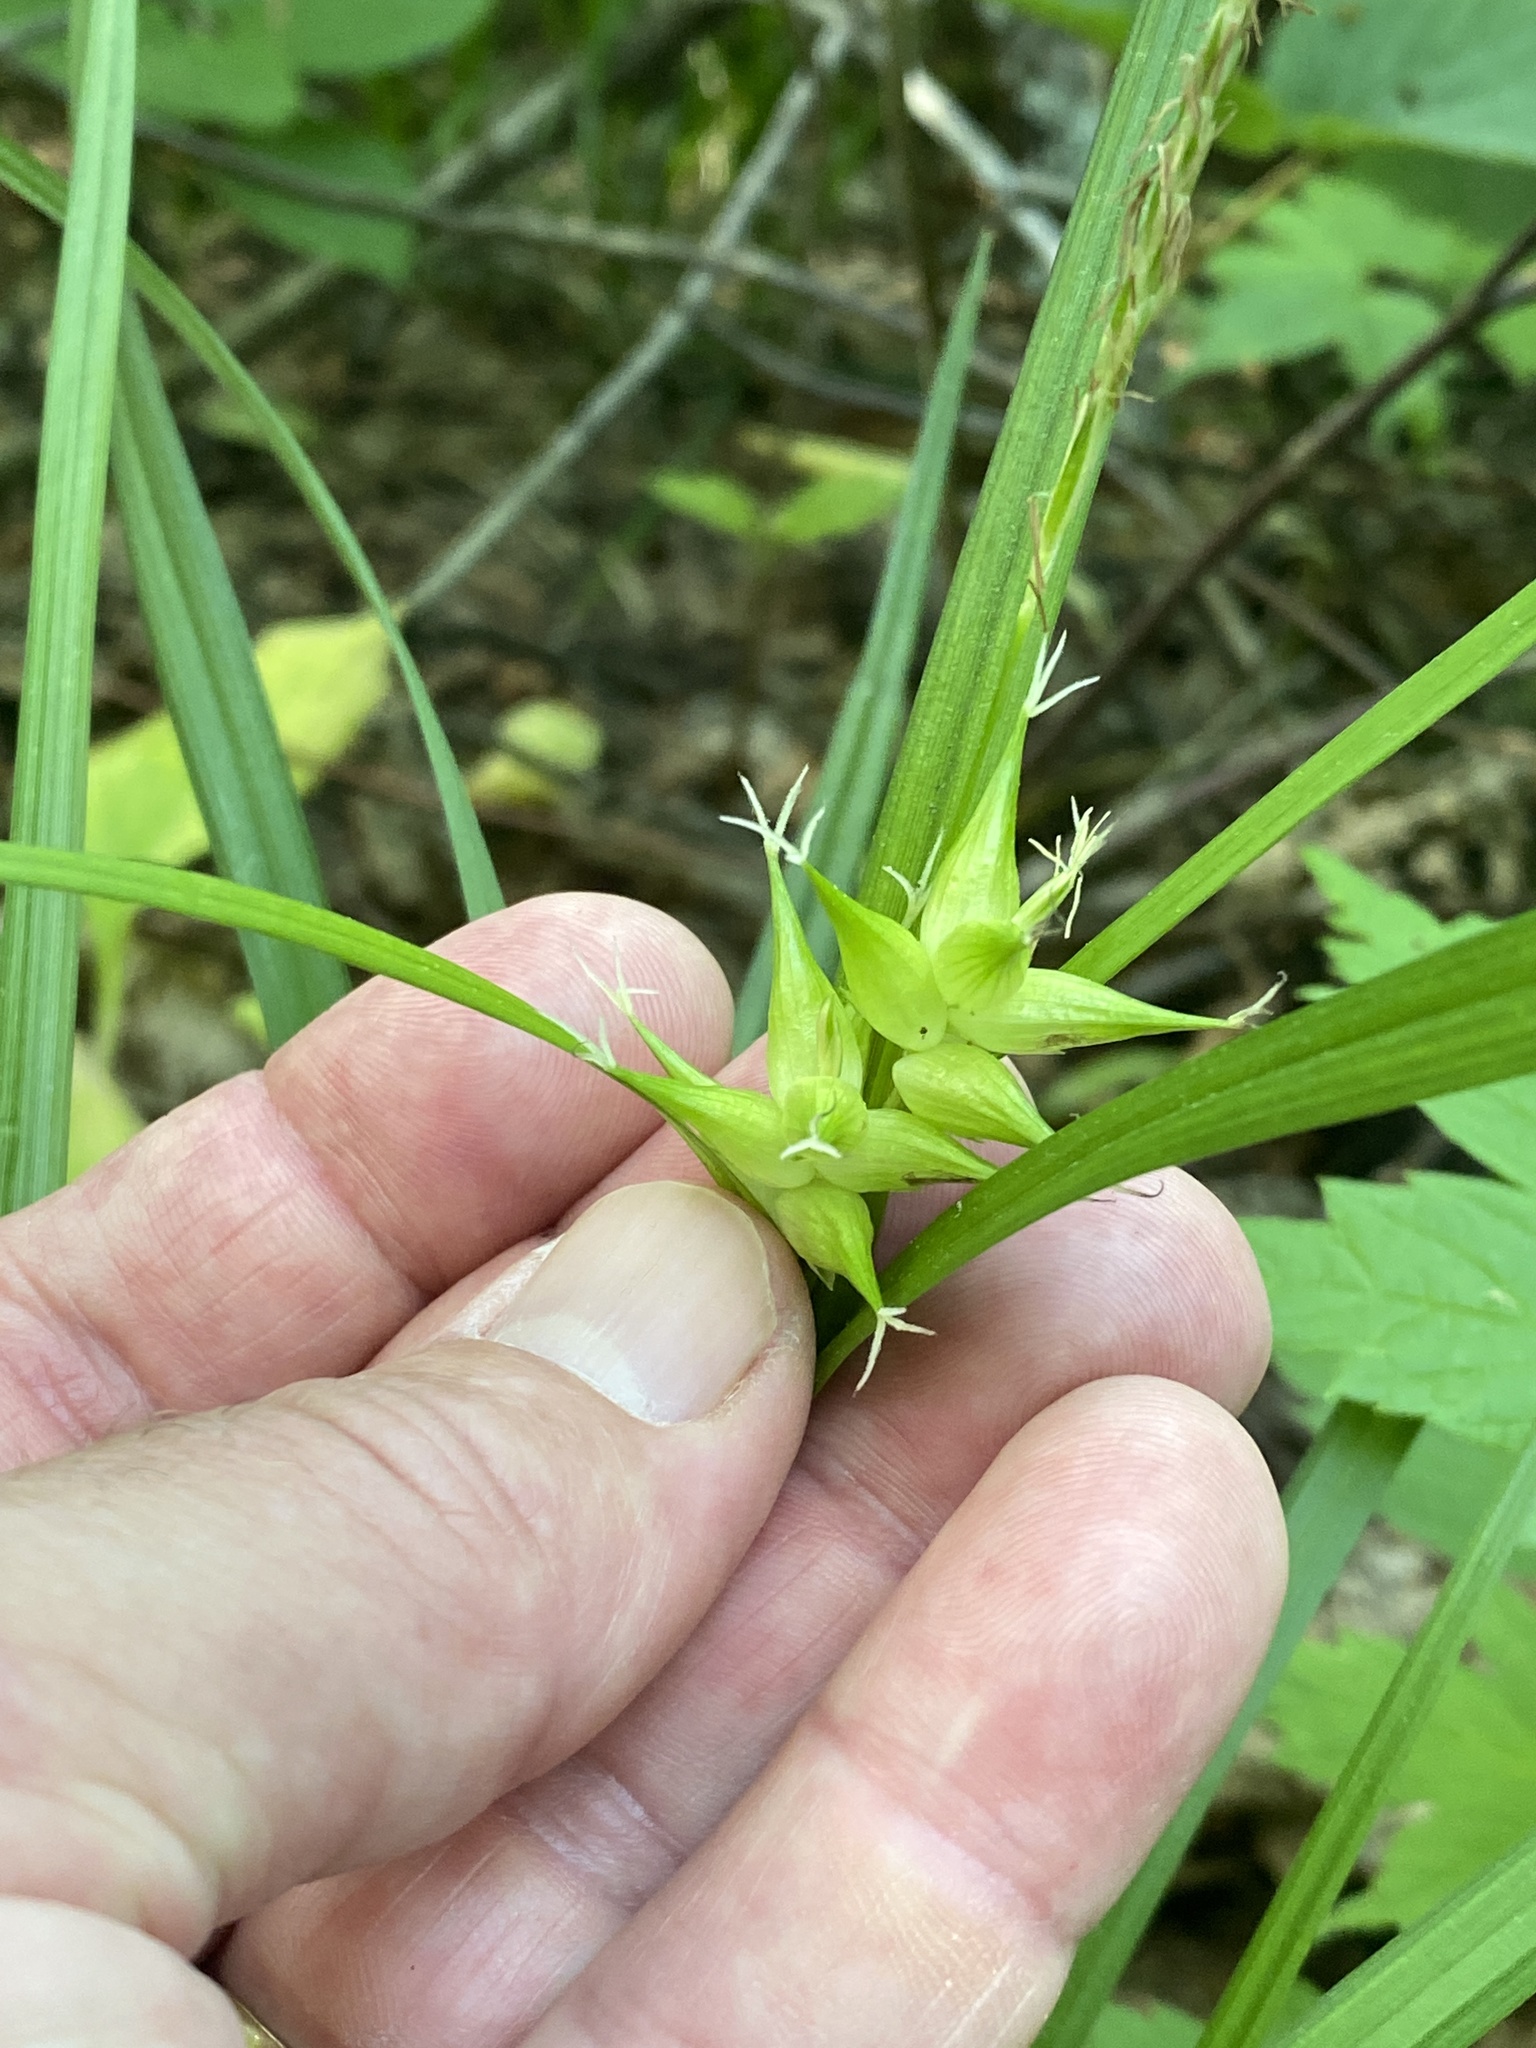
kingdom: Plantae
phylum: Tracheophyta
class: Liliopsida
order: Poales
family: Cyperaceae
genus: Carex
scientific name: Carex intumescens
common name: Greater bladder sedge
